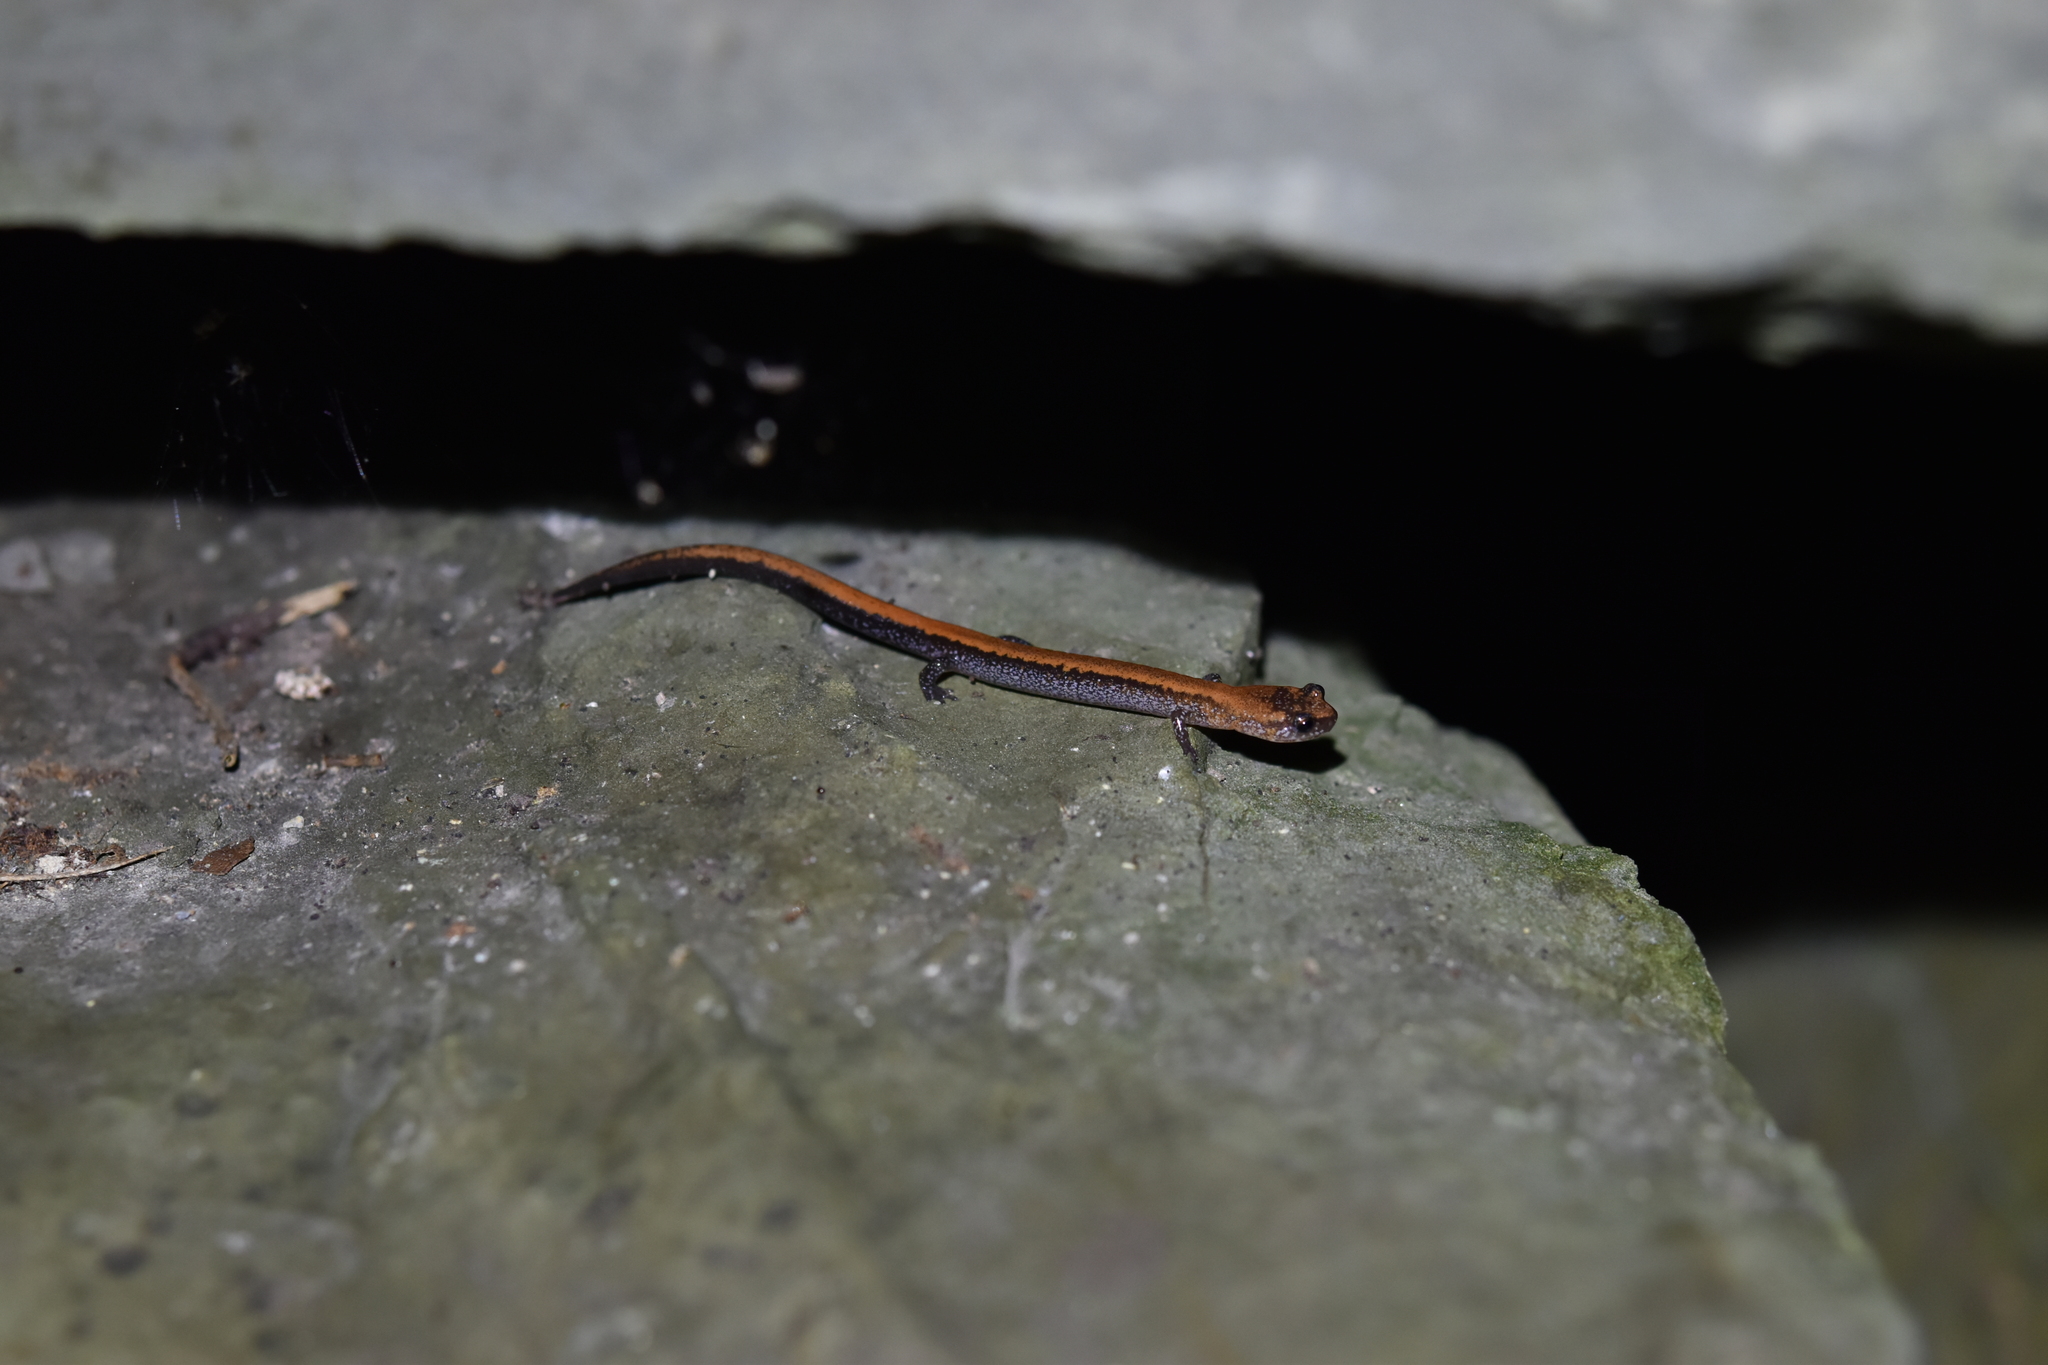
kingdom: Animalia
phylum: Chordata
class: Amphibia
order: Caudata
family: Plethodontidae
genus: Plethodon
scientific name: Plethodon cinereus
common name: Redback salamander
